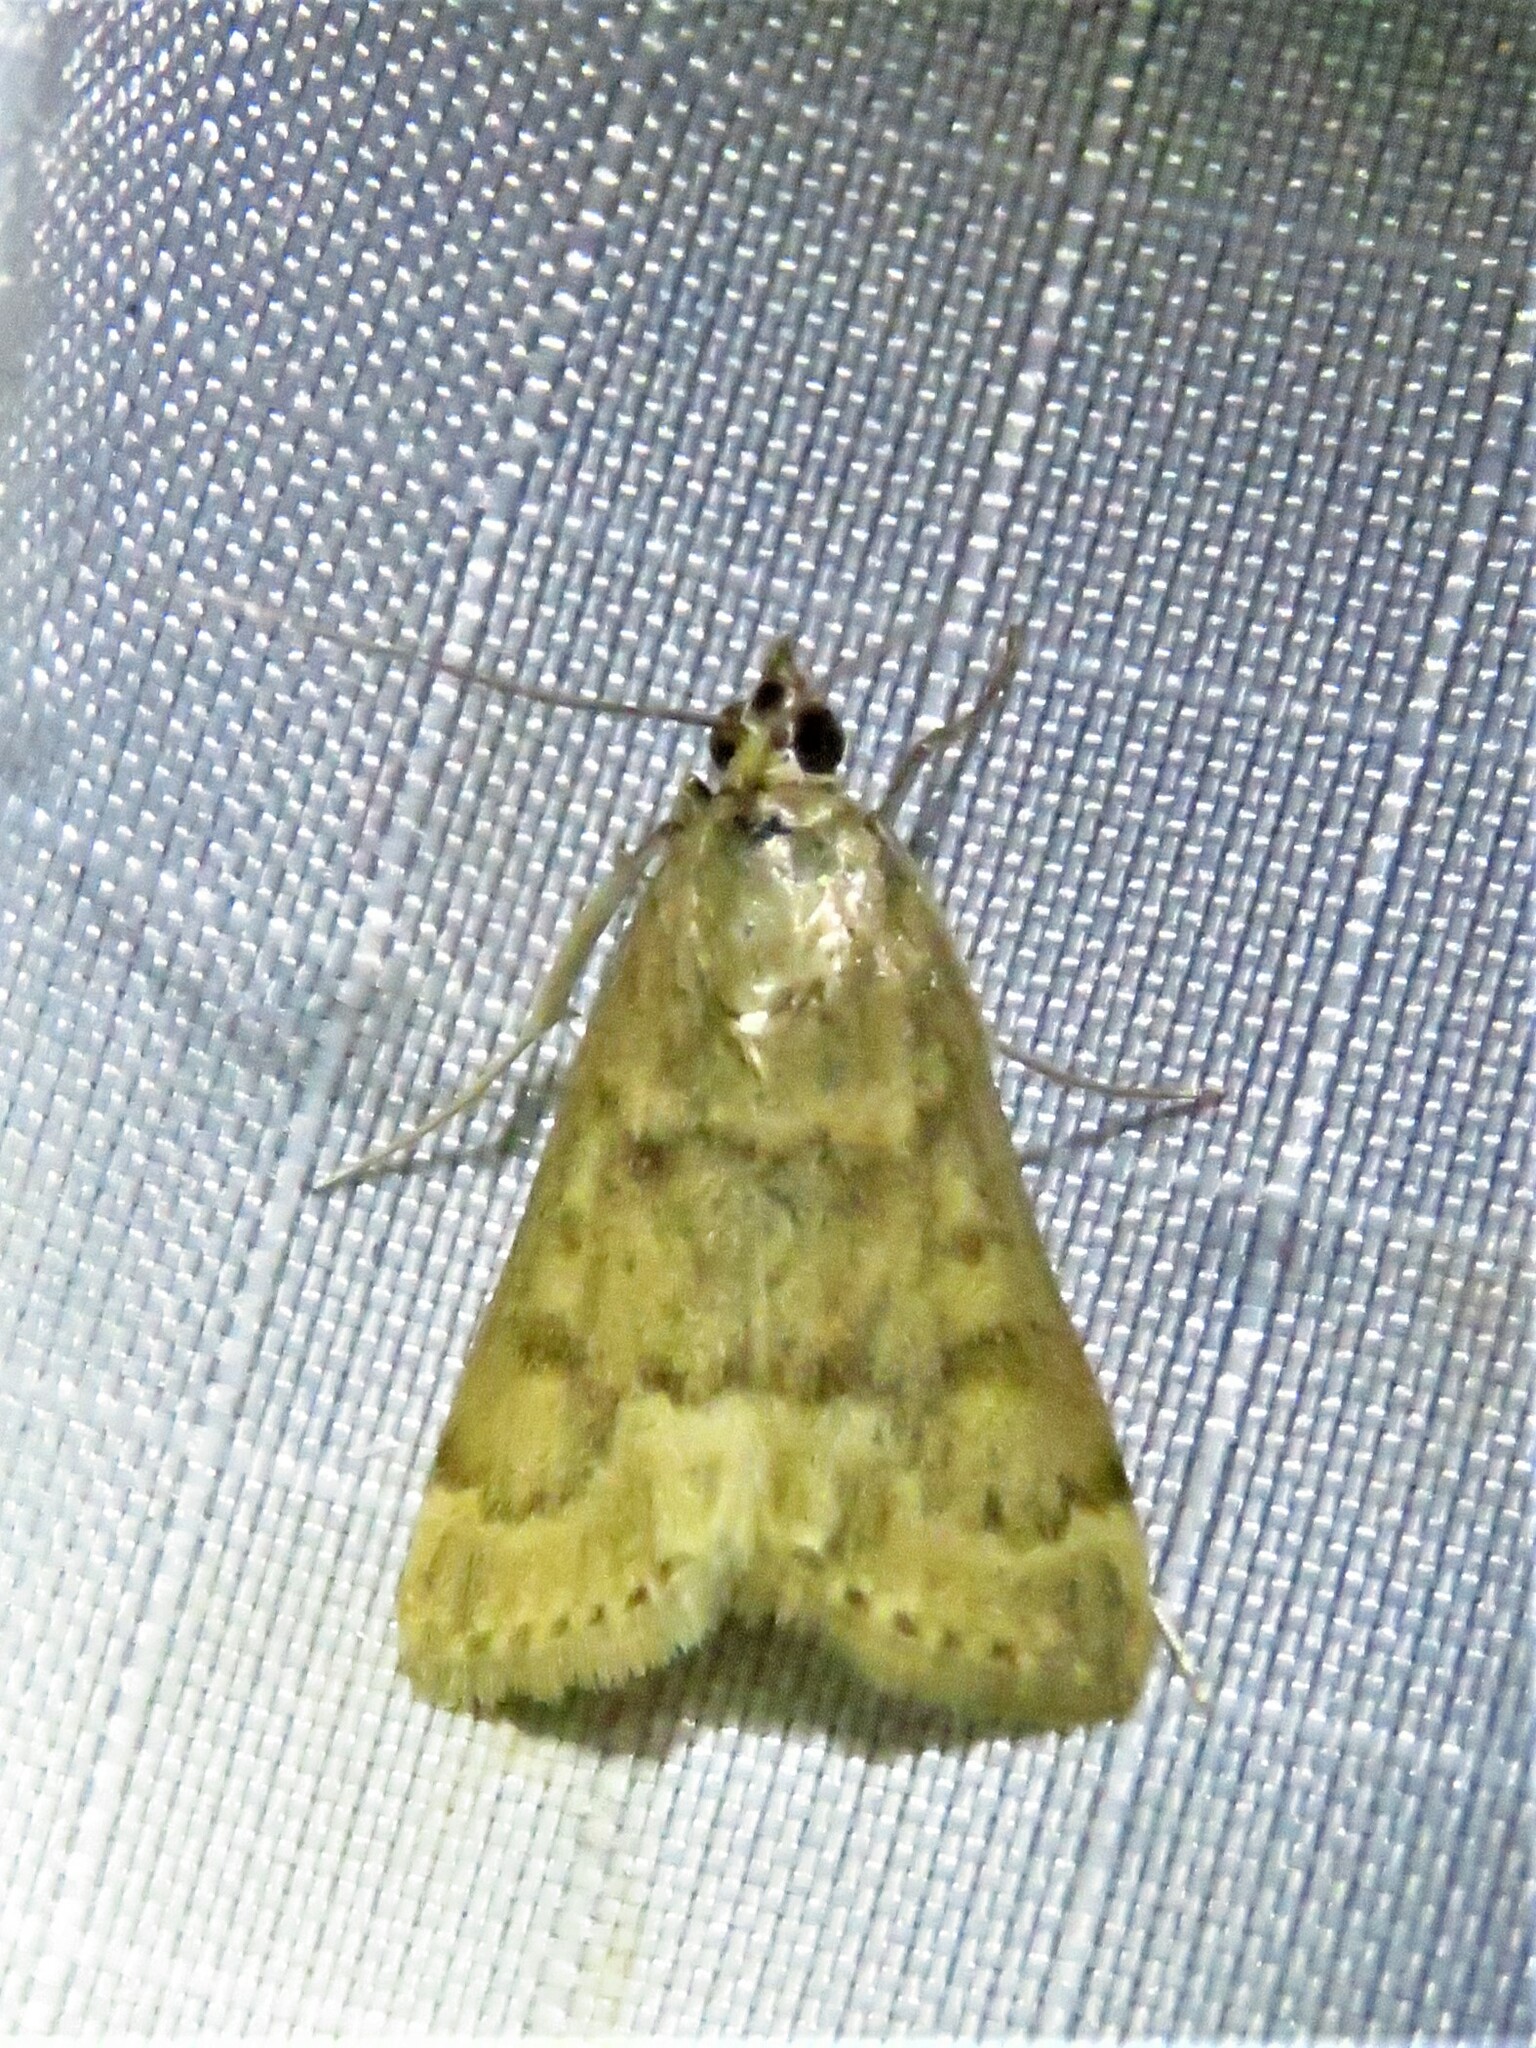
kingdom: Animalia
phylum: Arthropoda
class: Insecta
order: Lepidoptera
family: Crambidae
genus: Achyra
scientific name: Achyra rantalis
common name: Garden webworm
